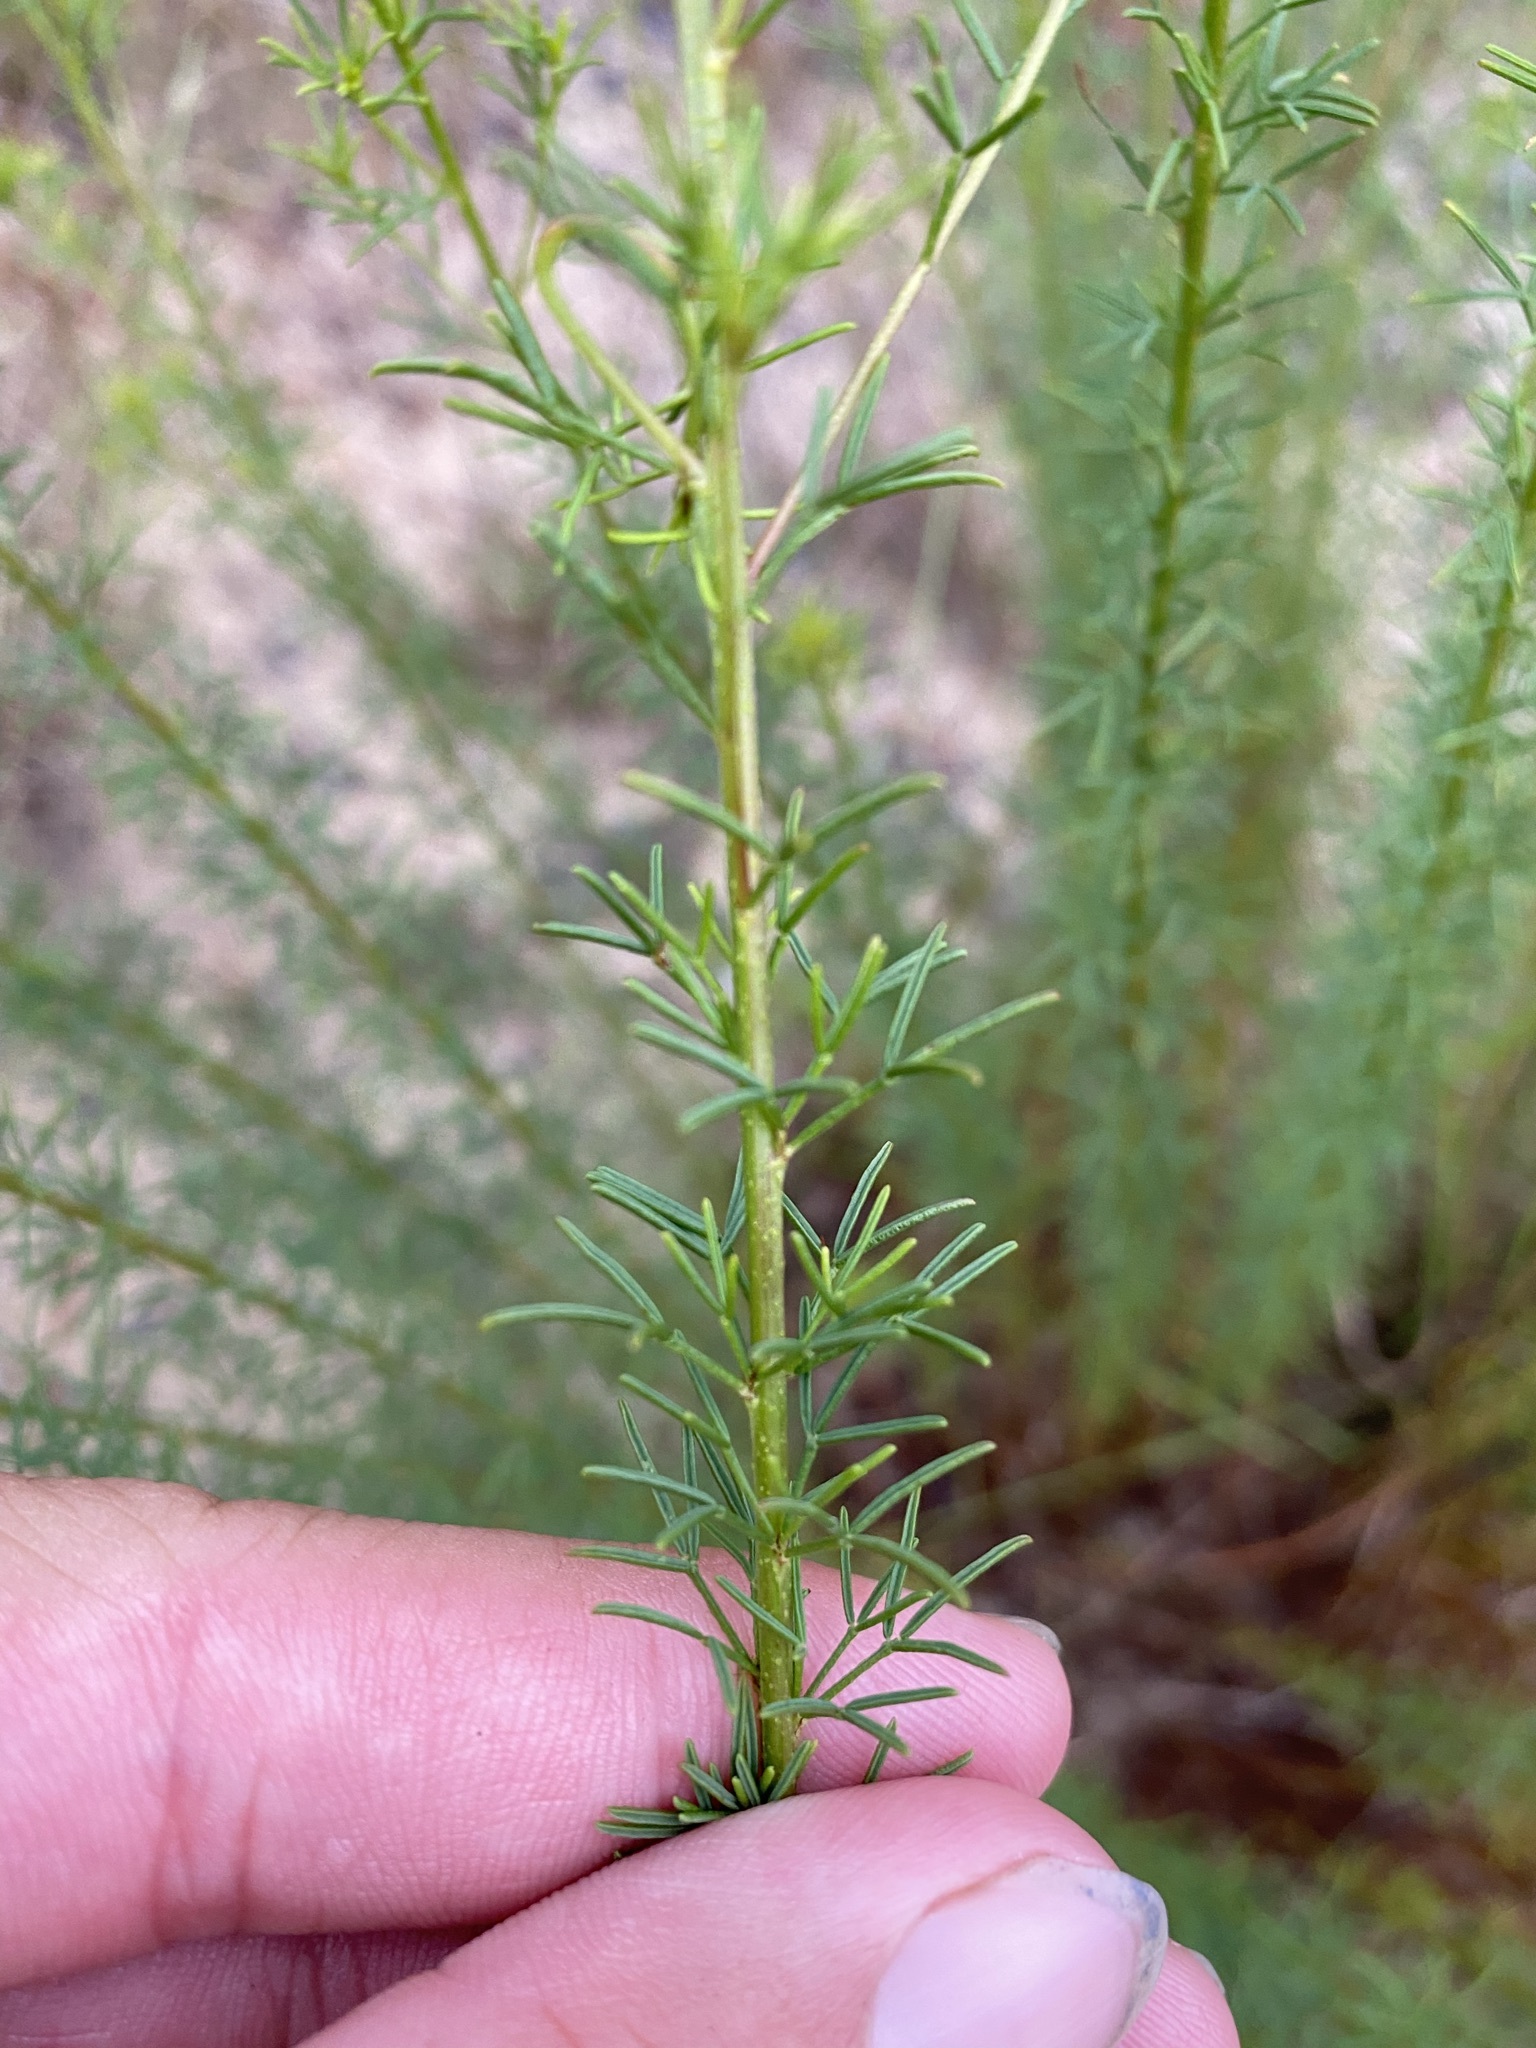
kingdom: Plantae
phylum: Tracheophyta
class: Magnoliopsida
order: Fabales
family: Fabaceae
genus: Dalea
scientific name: Dalea pinnata
